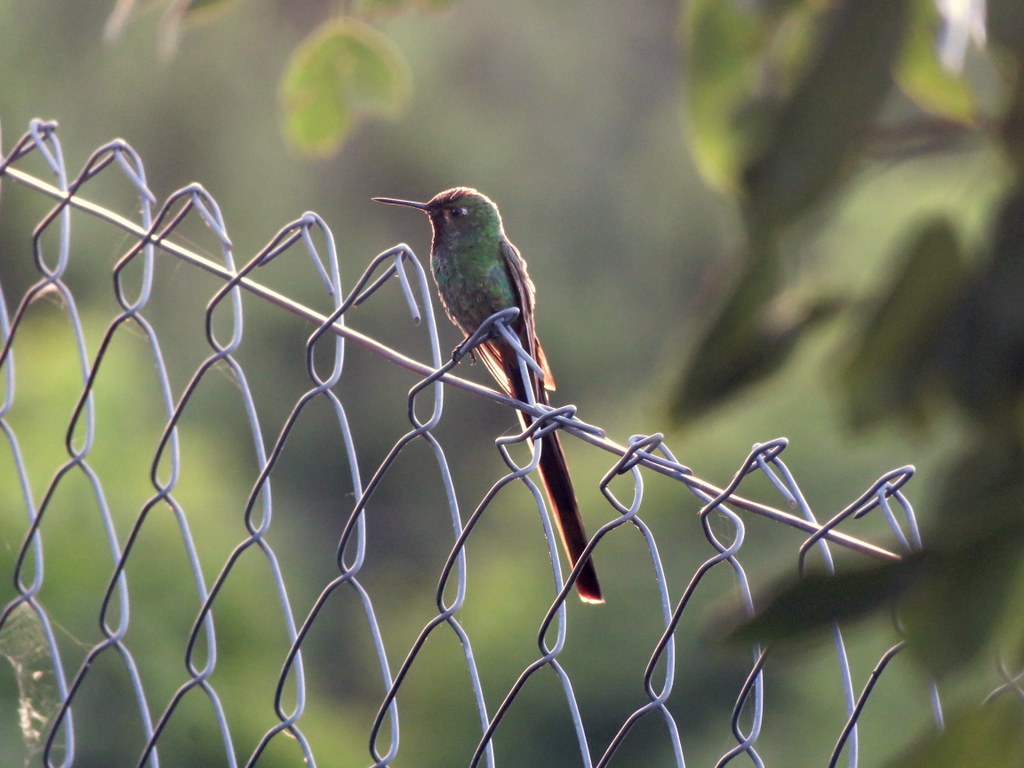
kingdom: Animalia
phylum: Chordata
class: Aves
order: Apodiformes
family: Trochilidae
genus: Sappho
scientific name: Sappho sparganurus
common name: Red-tailed comet
